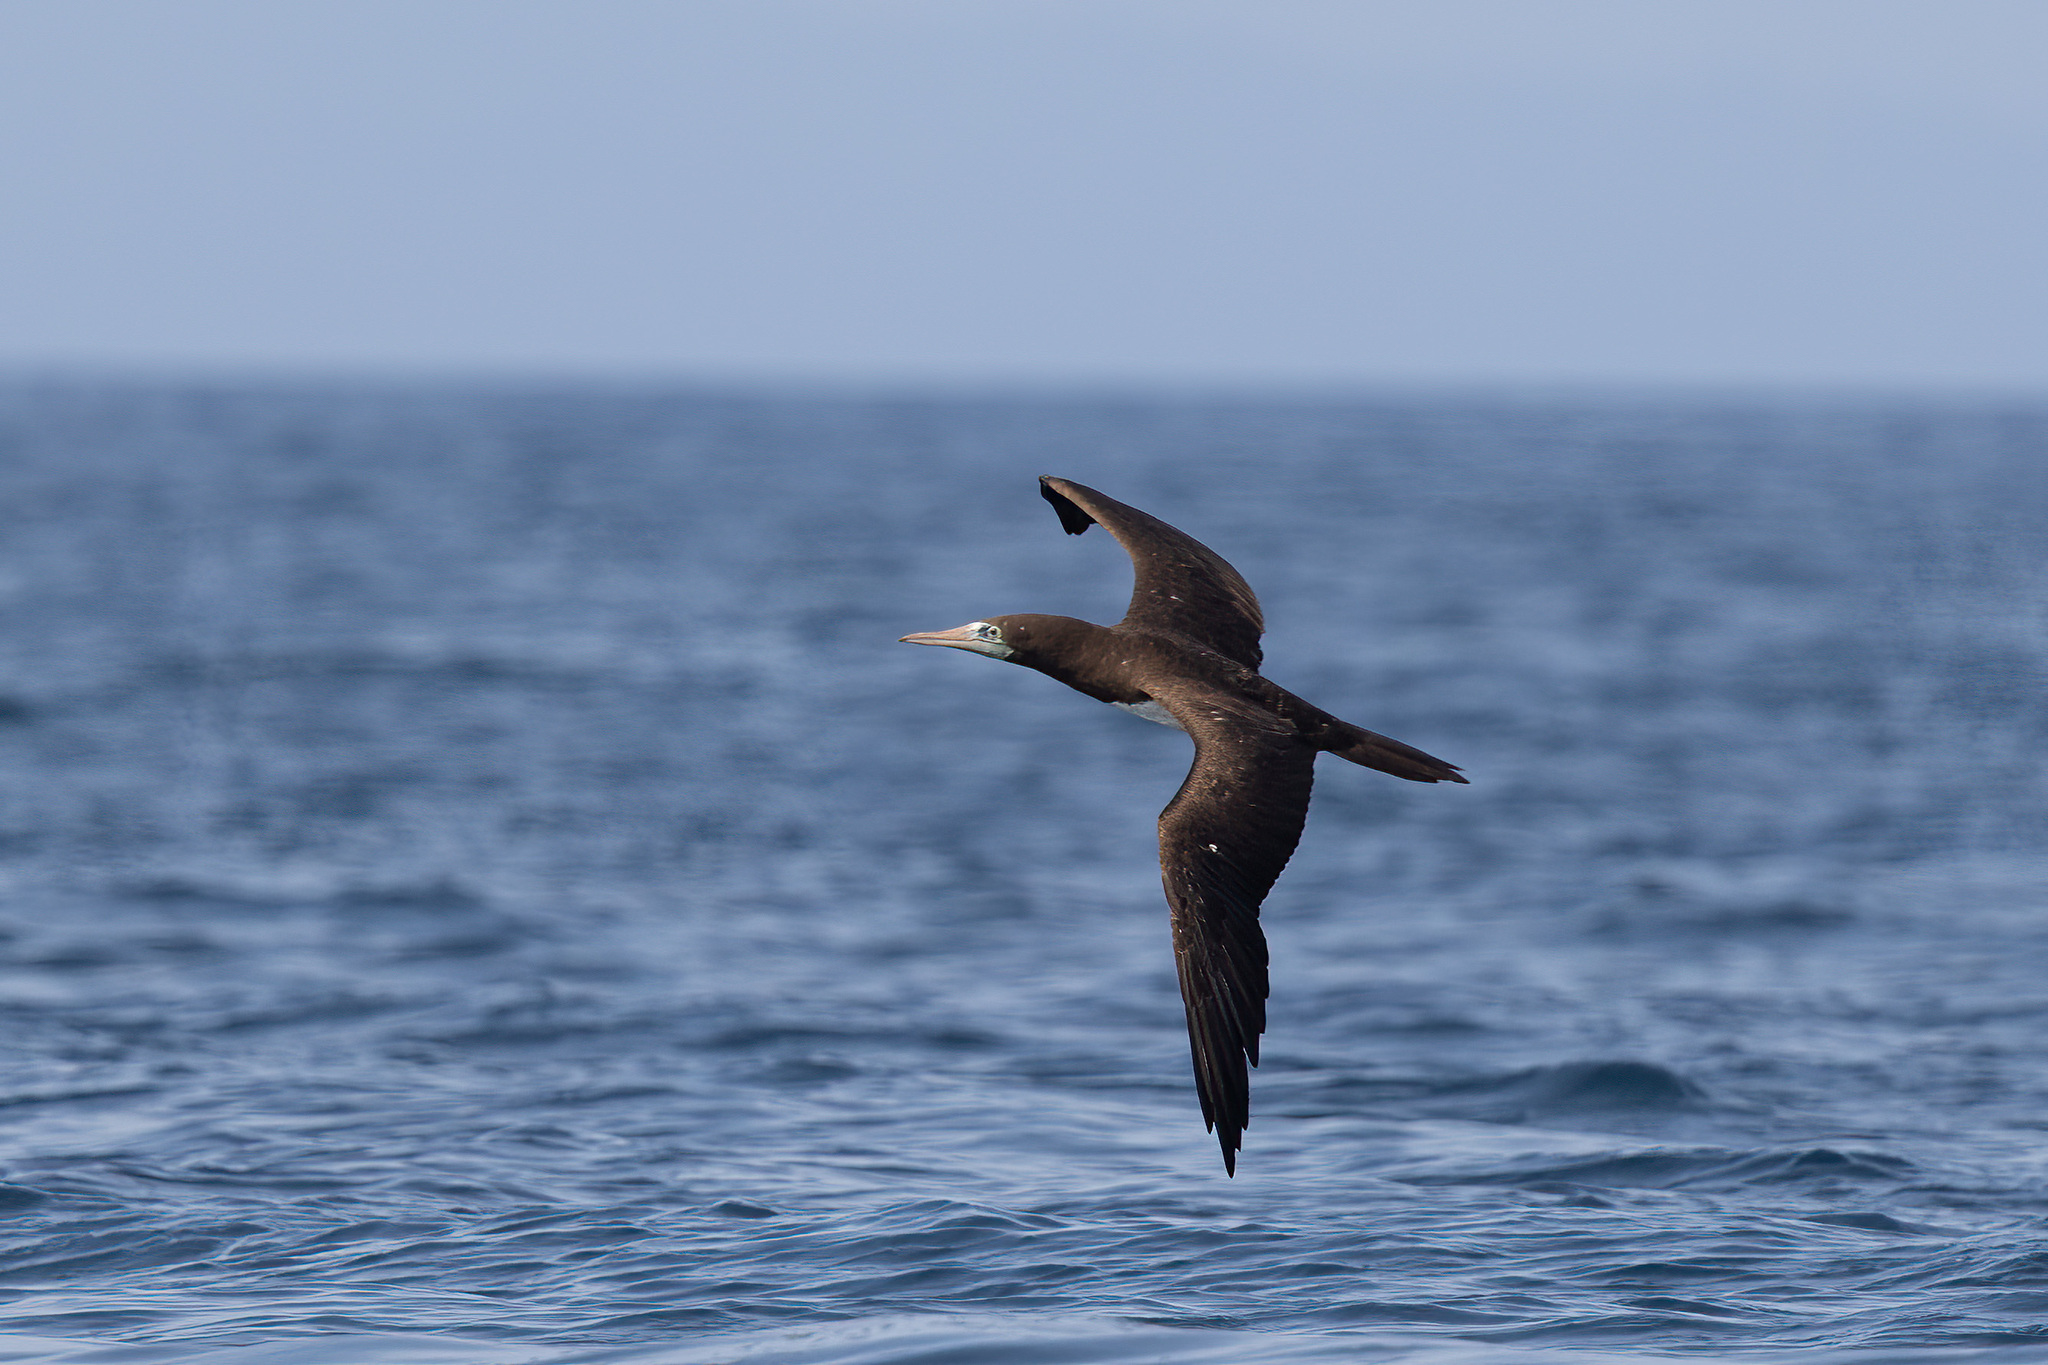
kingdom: Animalia
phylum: Chordata
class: Aves
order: Suliformes
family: Sulidae
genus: Sula
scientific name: Sula leucogaster
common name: Brown booby
